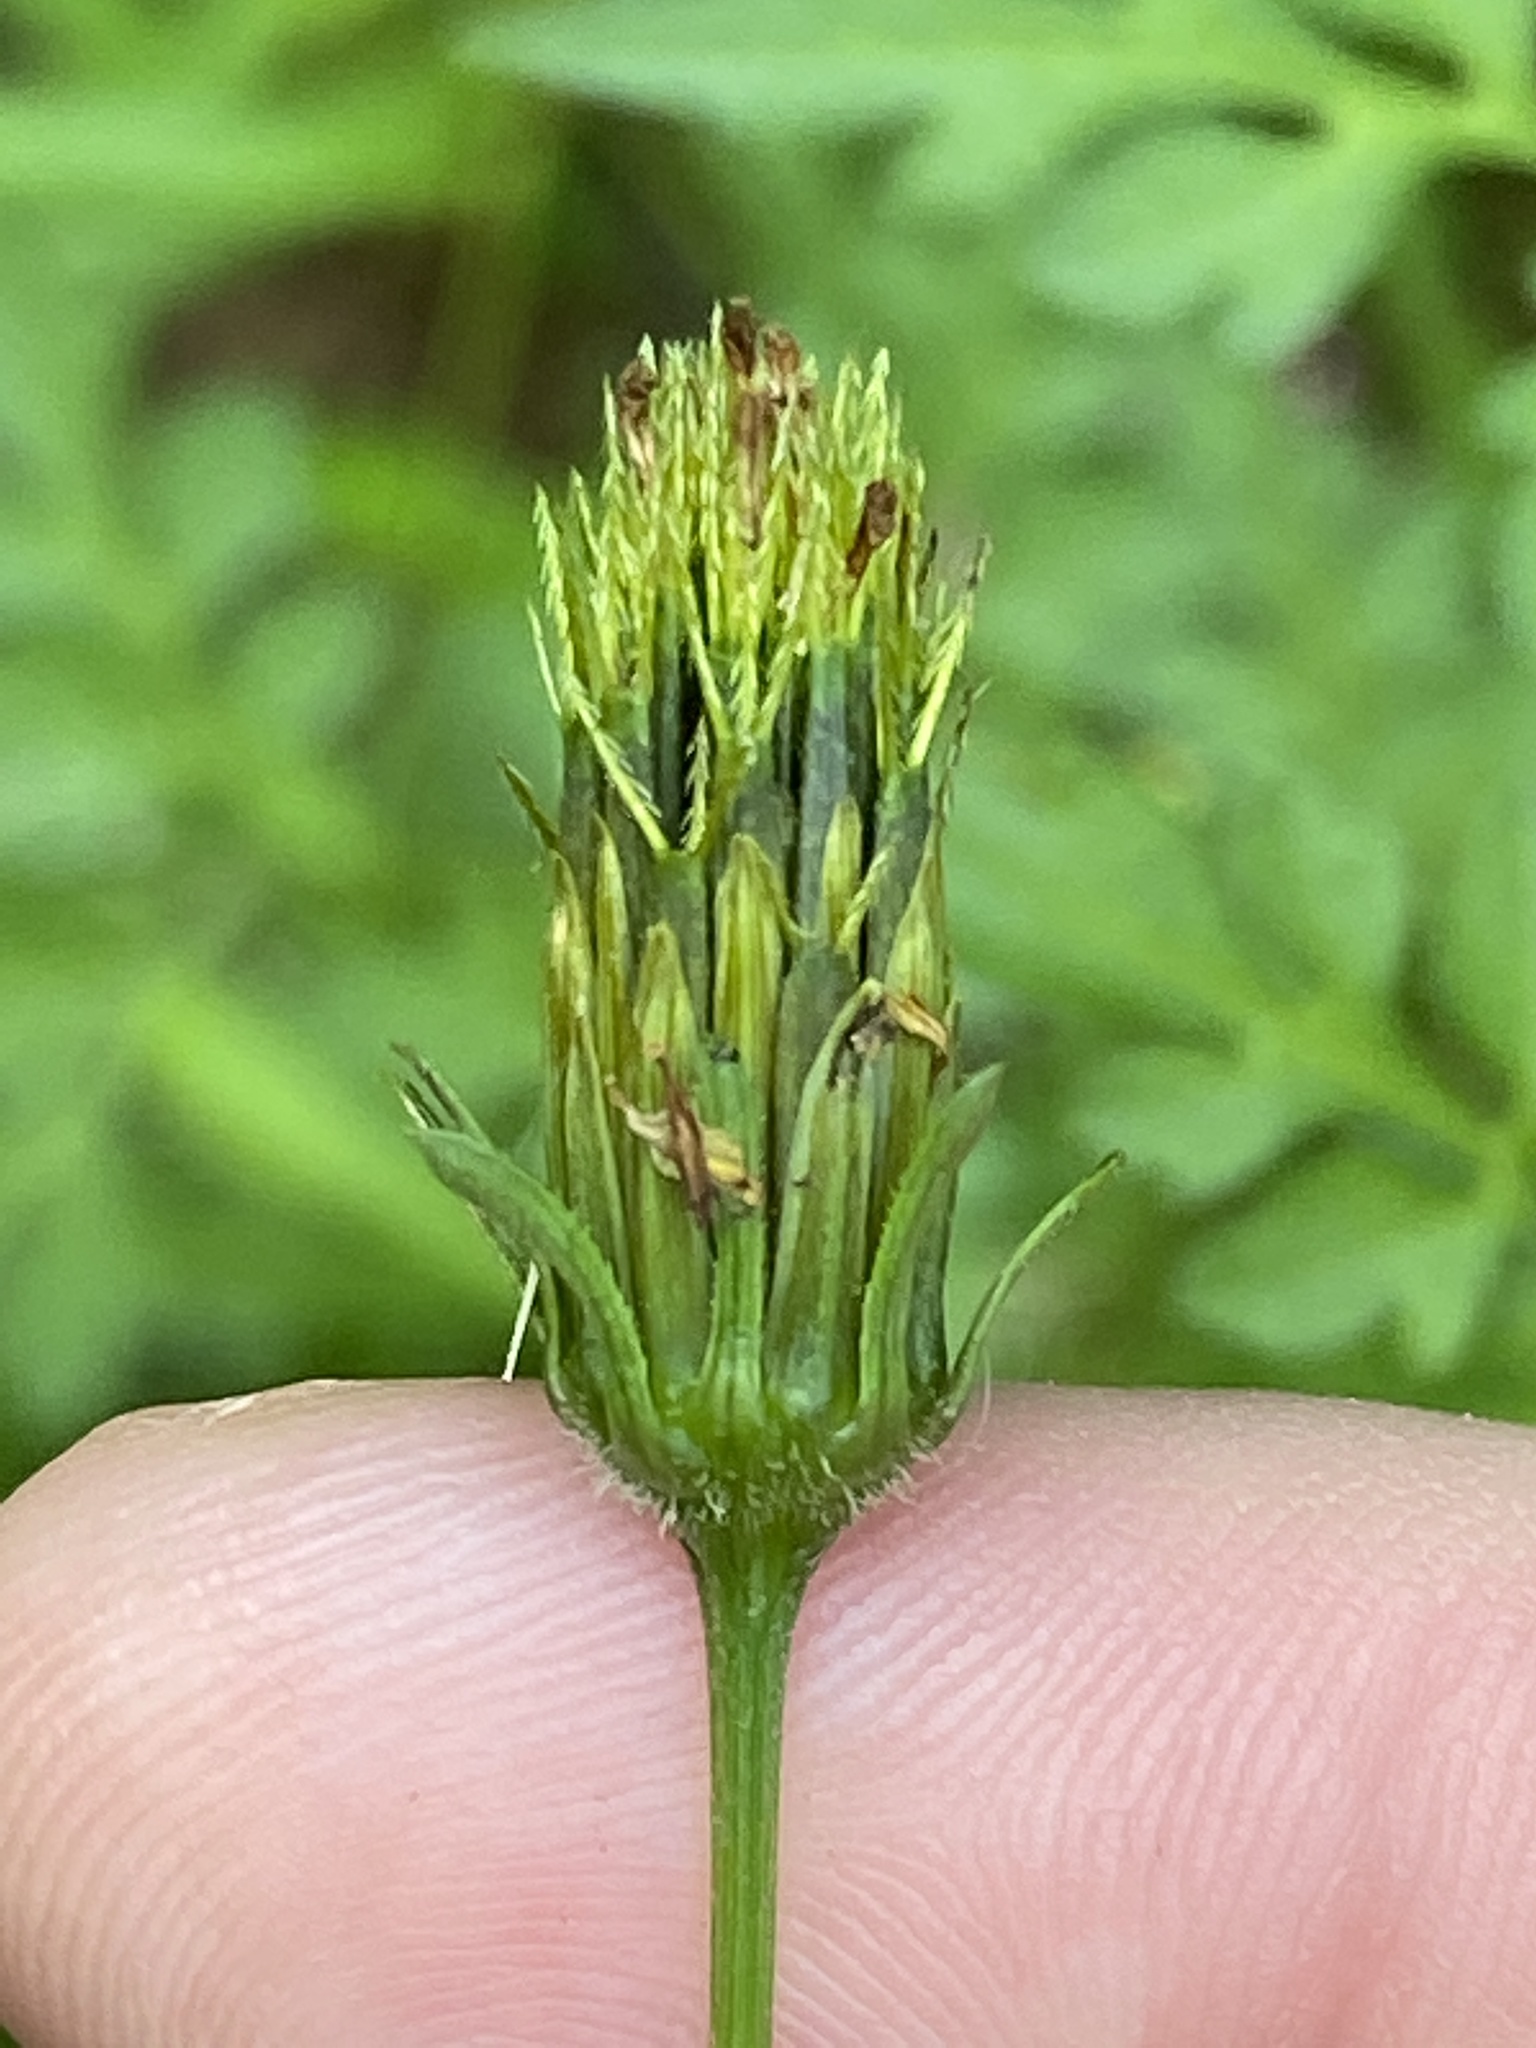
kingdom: Plantae
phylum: Tracheophyta
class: Magnoliopsida
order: Asterales
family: Asteraceae
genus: Bidens
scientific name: Bidens bipinnata
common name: Spanish-needles
